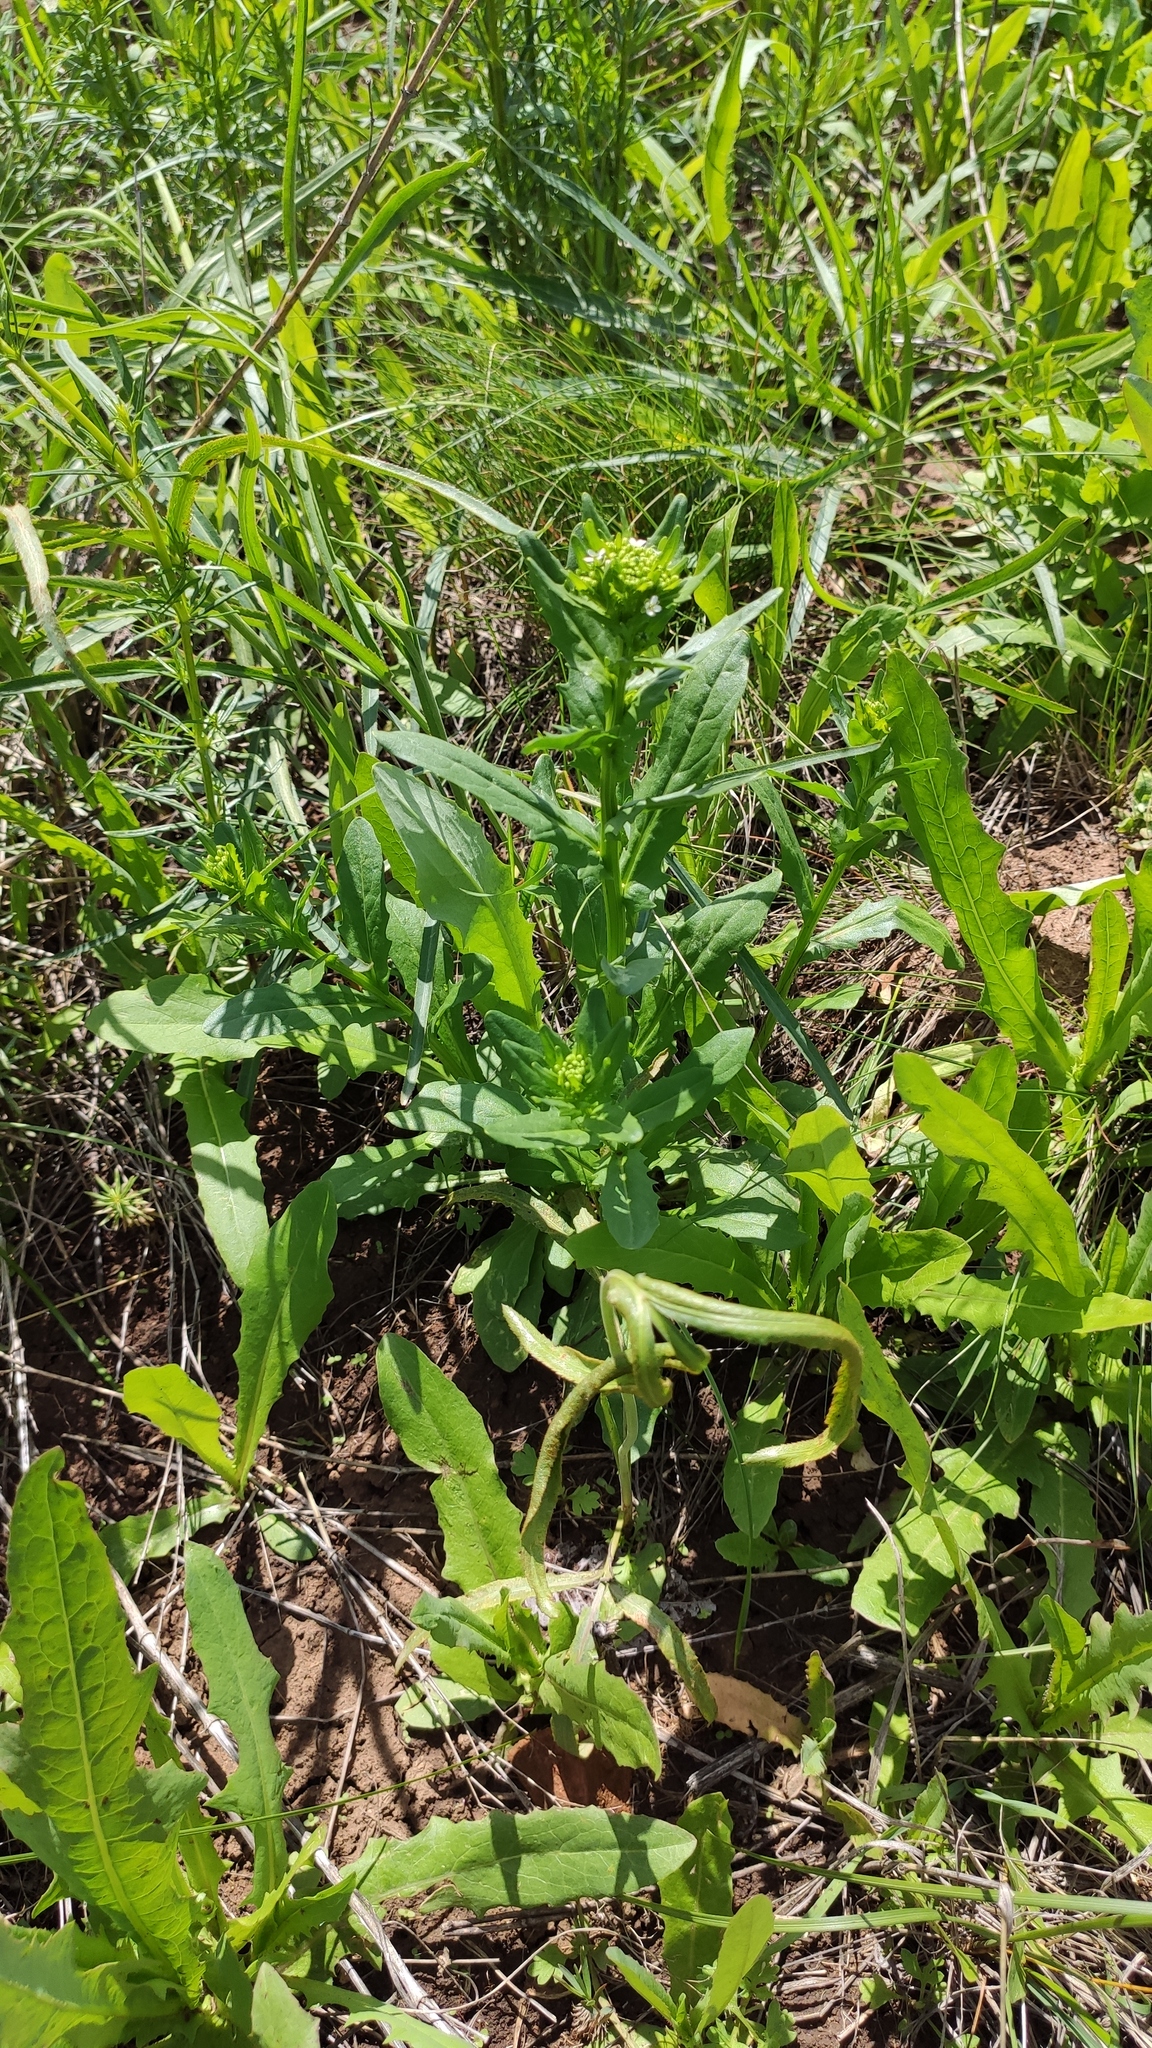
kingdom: Plantae
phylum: Tracheophyta
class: Magnoliopsida
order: Brassicales
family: Brassicaceae
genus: Thlaspi
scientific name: Thlaspi arvense
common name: Field pennycress
